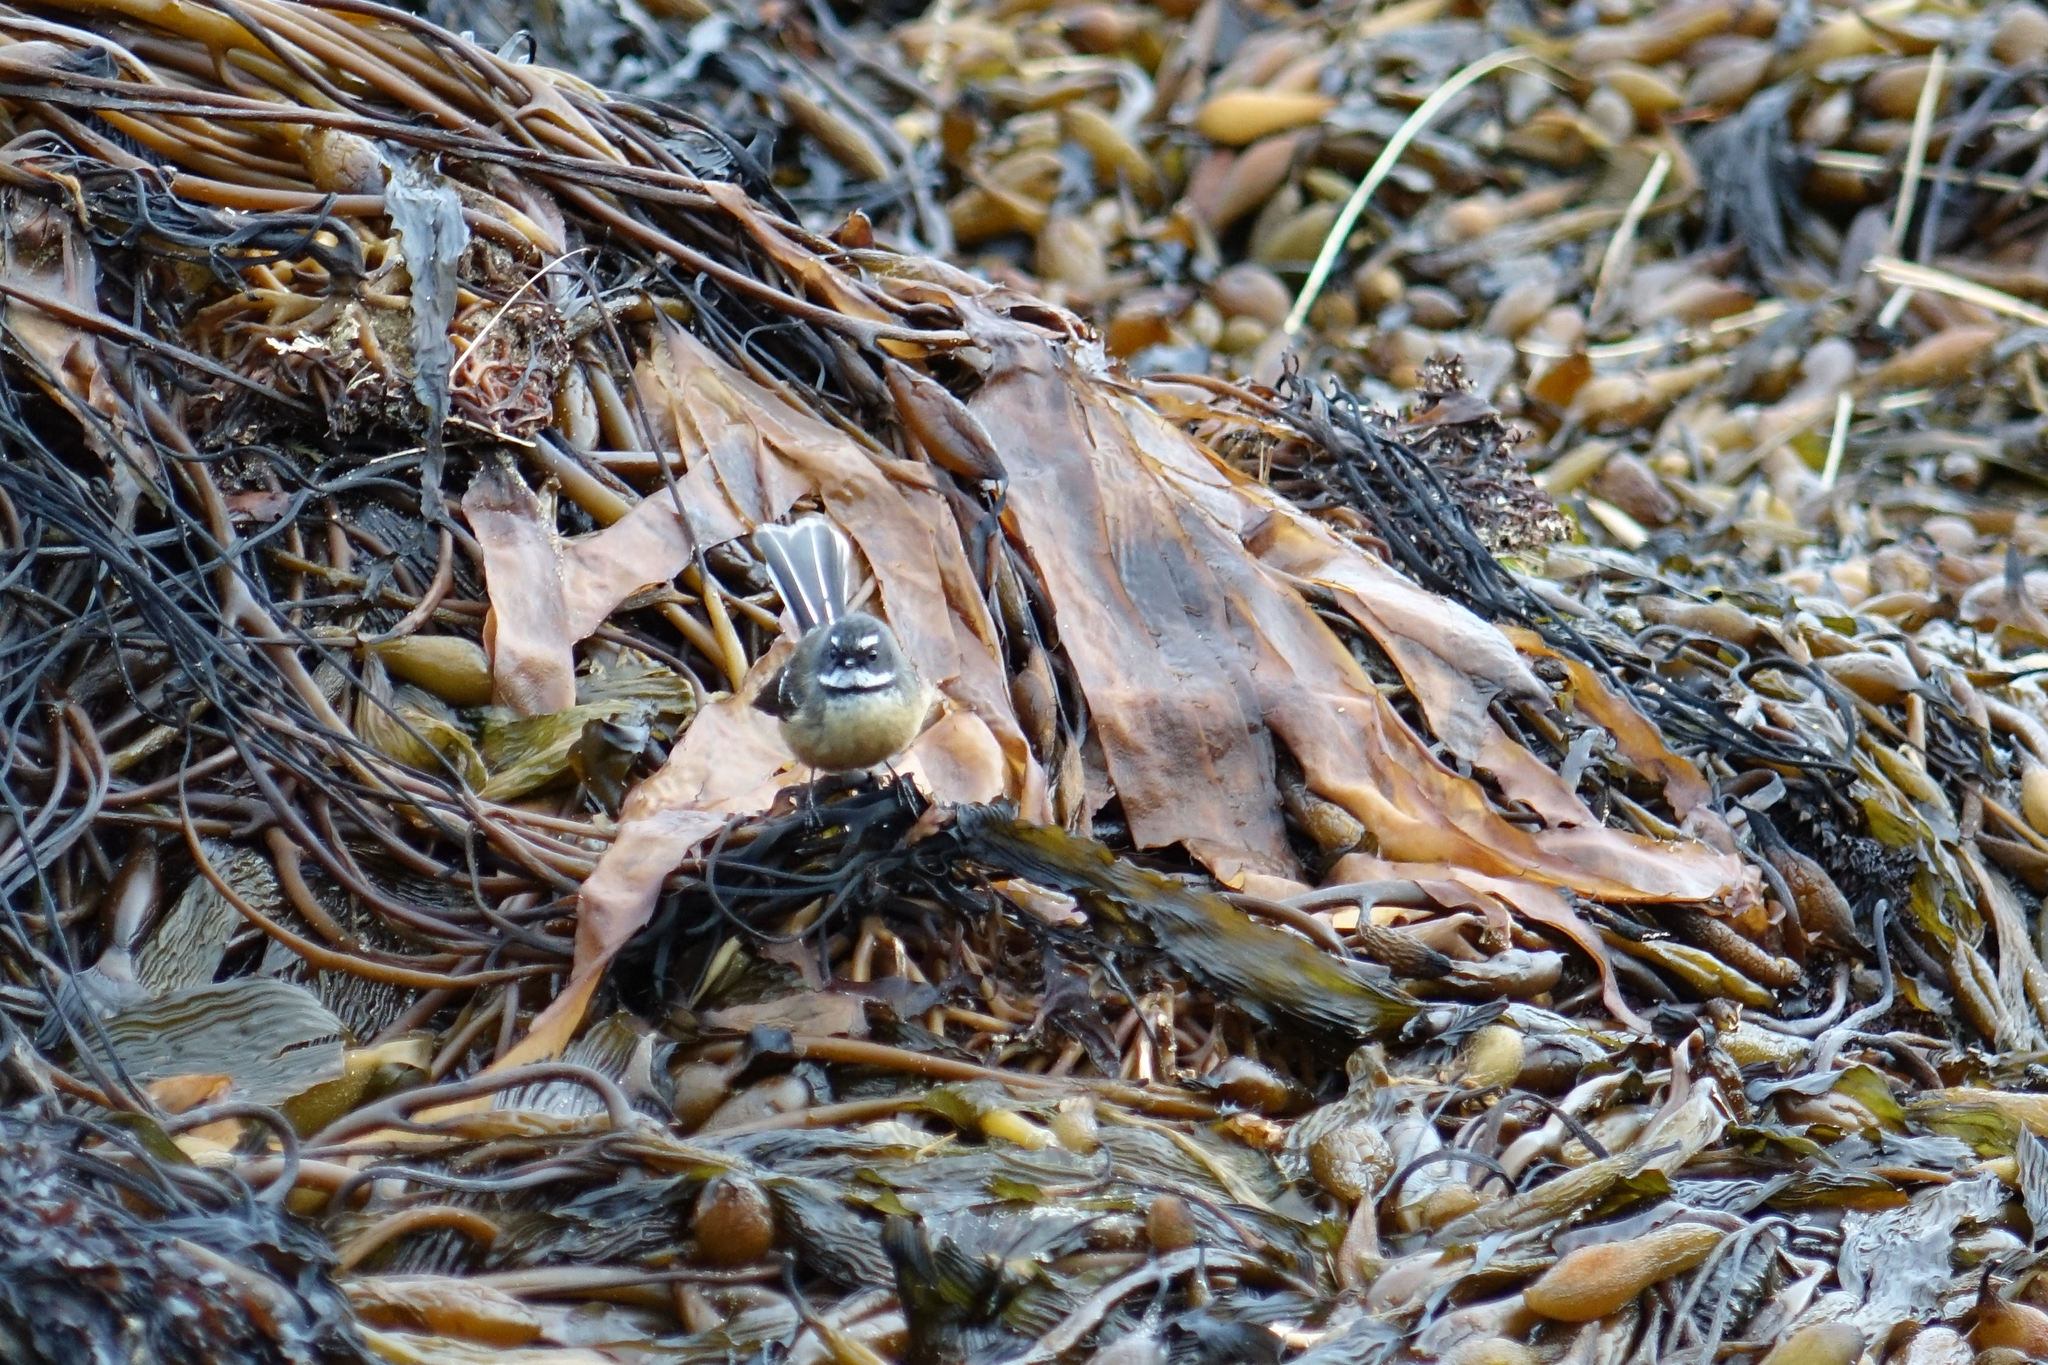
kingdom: Animalia
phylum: Chordata
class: Aves
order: Passeriformes
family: Rhipiduridae
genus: Rhipidura
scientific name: Rhipidura fuliginosa
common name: New zealand fantail
